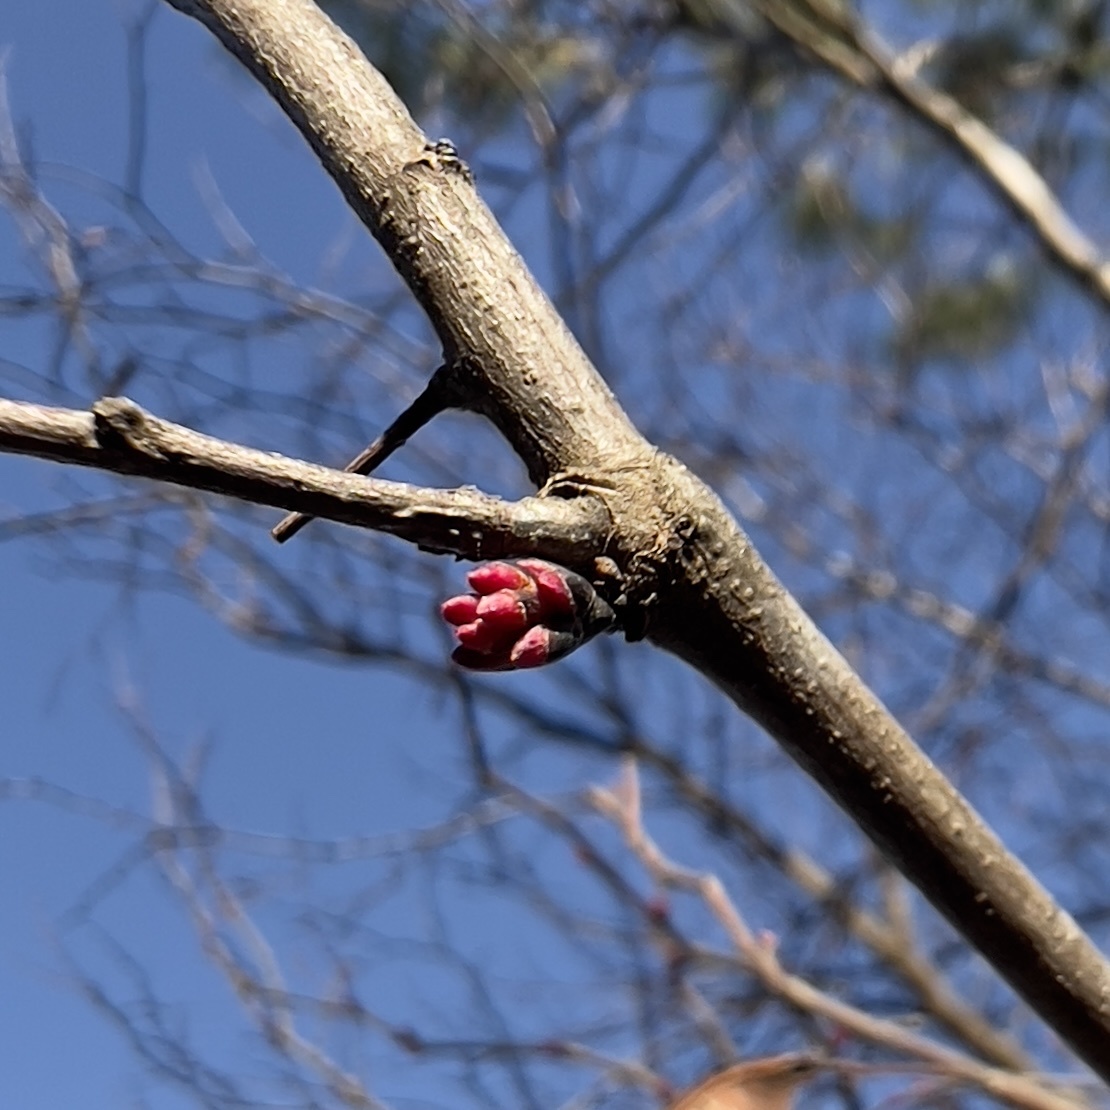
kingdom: Plantae
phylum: Tracheophyta
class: Magnoliopsida
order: Fabales
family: Fabaceae
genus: Cercis
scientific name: Cercis canadensis
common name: Eastern redbud
